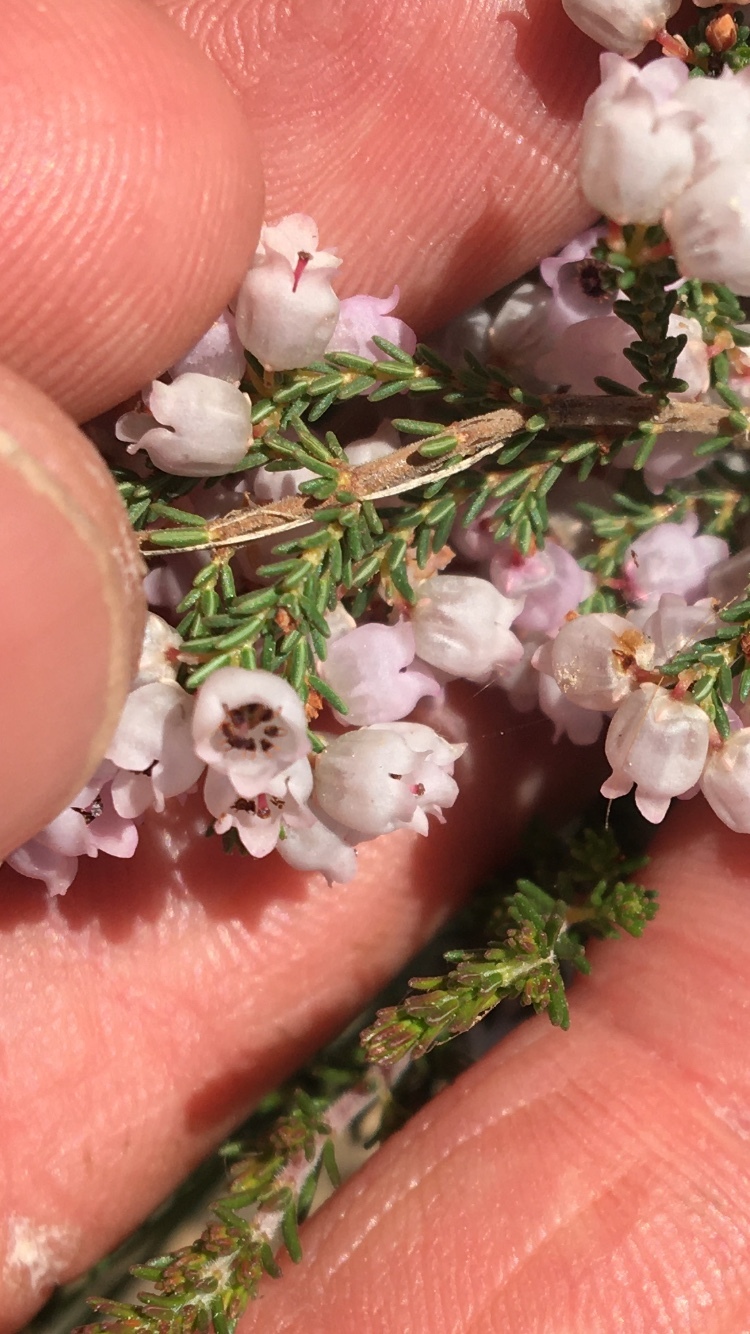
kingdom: Plantae
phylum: Tracheophyta
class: Magnoliopsida
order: Ericales
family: Ericaceae
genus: Erica
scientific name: Erica mauritanica
